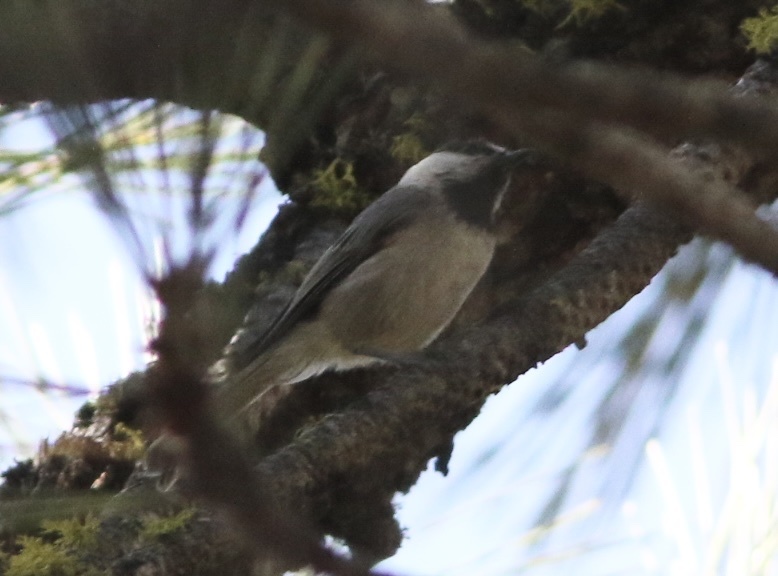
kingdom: Animalia
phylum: Chordata
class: Aves
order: Passeriformes
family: Paridae
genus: Poecile
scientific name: Poecile gambeli
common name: Mountain chickadee
